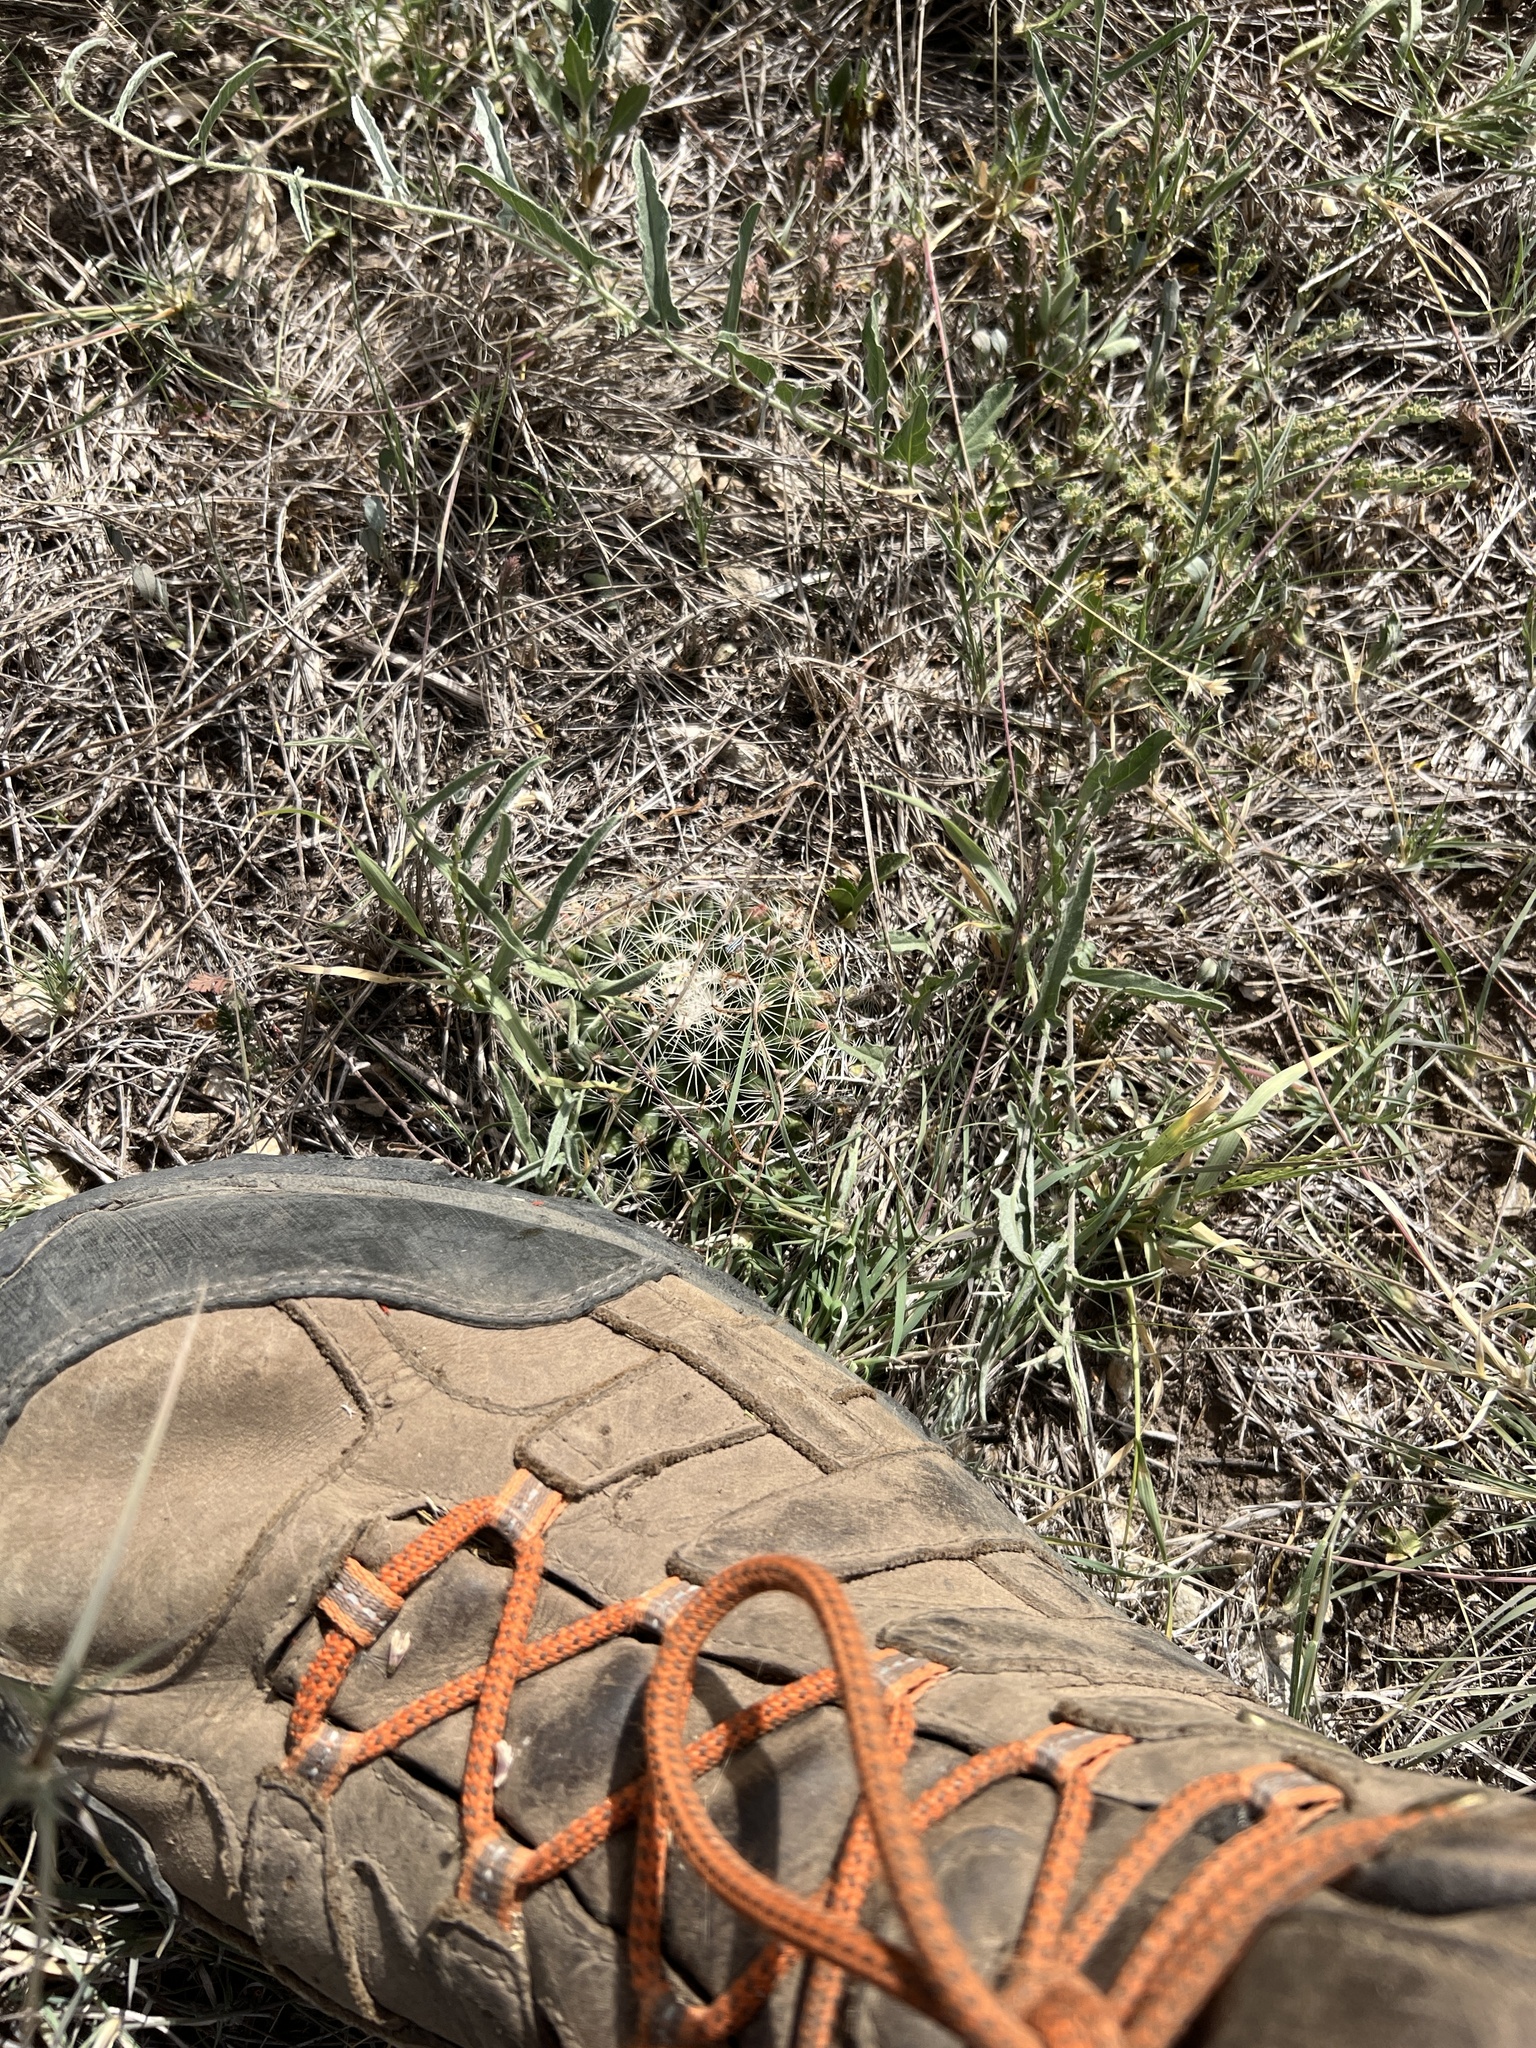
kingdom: Plantae
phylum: Tracheophyta
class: Magnoliopsida
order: Caryophyllales
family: Cactaceae
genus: Mammillaria
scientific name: Mammillaria heyderi
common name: Little nipple cactus
